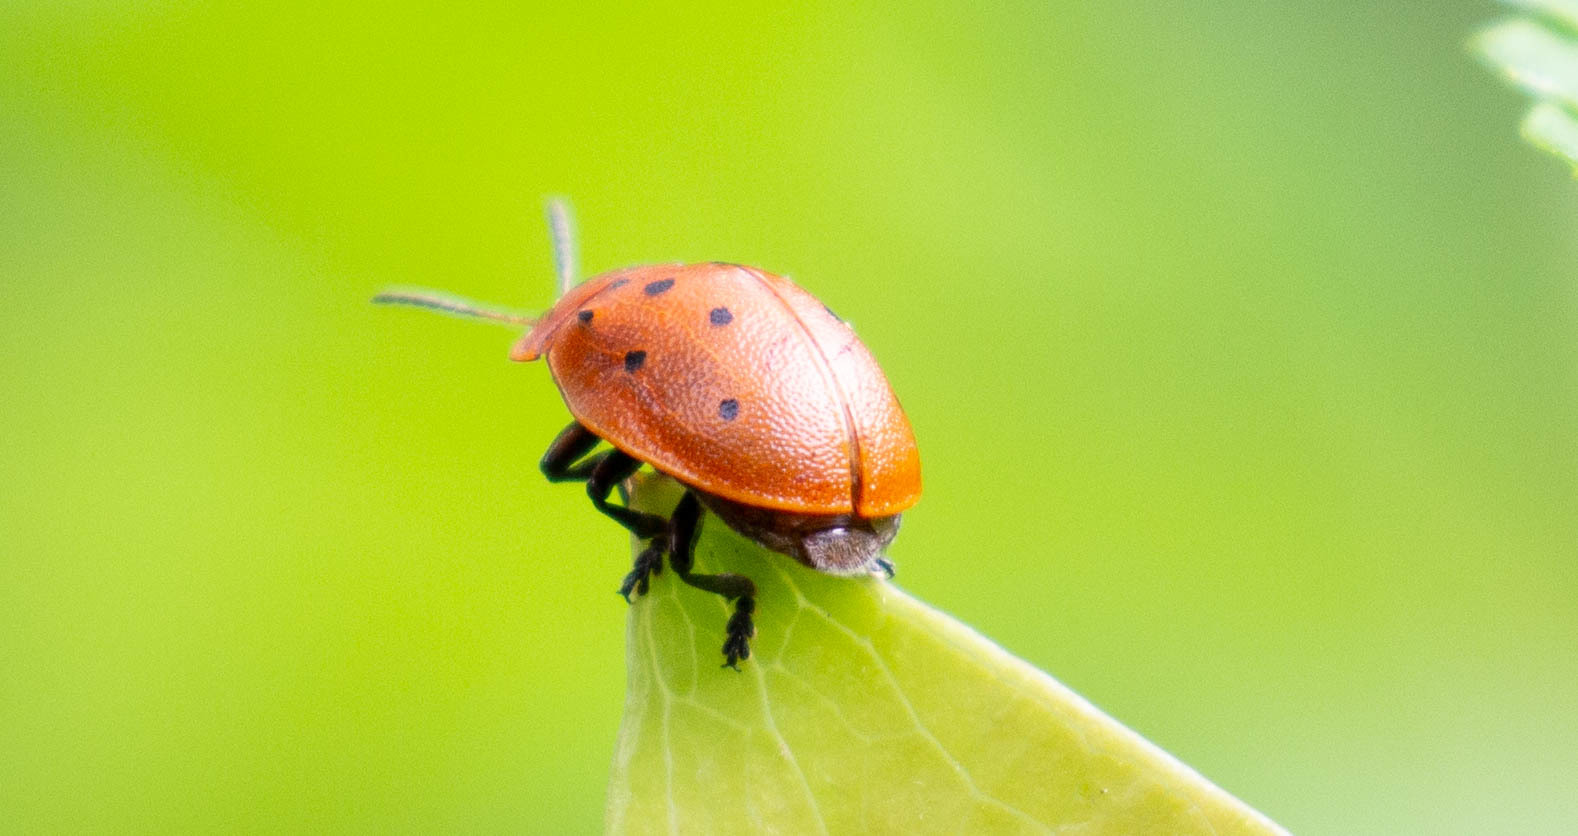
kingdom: Animalia
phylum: Arthropoda
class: Insecta
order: Coleoptera
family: Chrysomelidae
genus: Chelymorpha
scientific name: Chelymorpha cassidea
